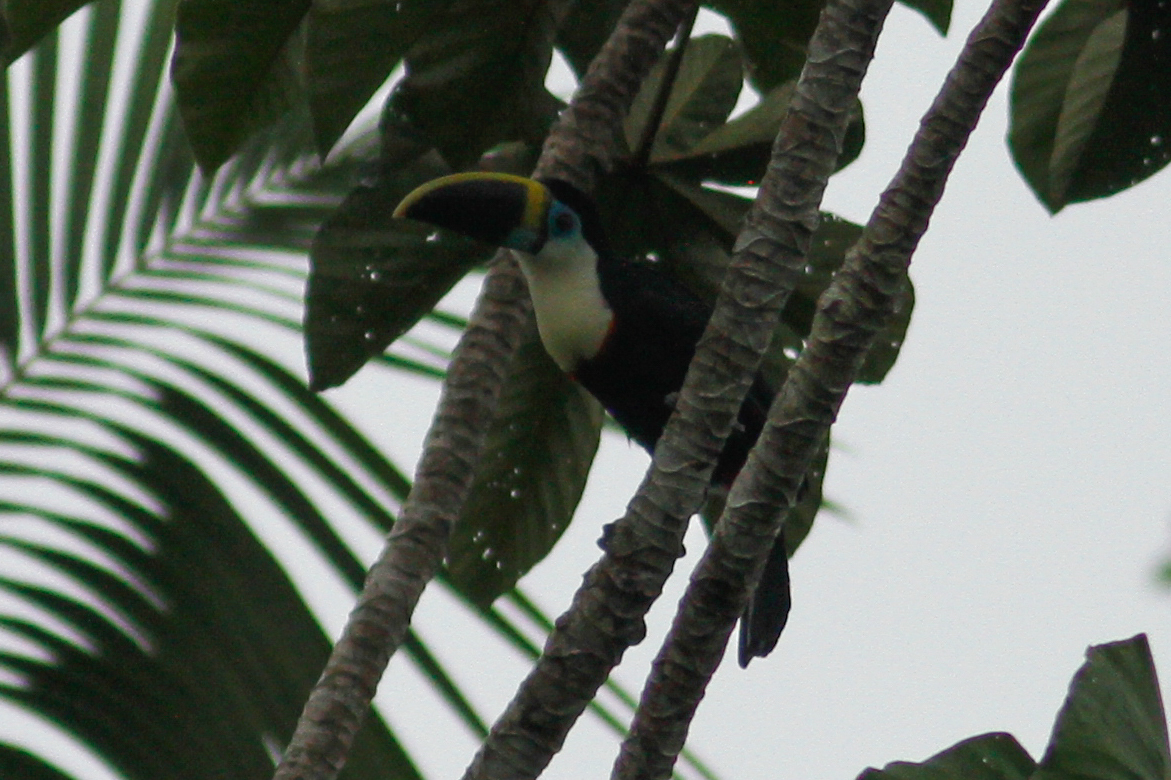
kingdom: Animalia
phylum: Chordata
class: Aves
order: Piciformes
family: Ramphastidae
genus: Ramphastos
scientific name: Ramphastos vitellinus
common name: Channel-billed toucan
